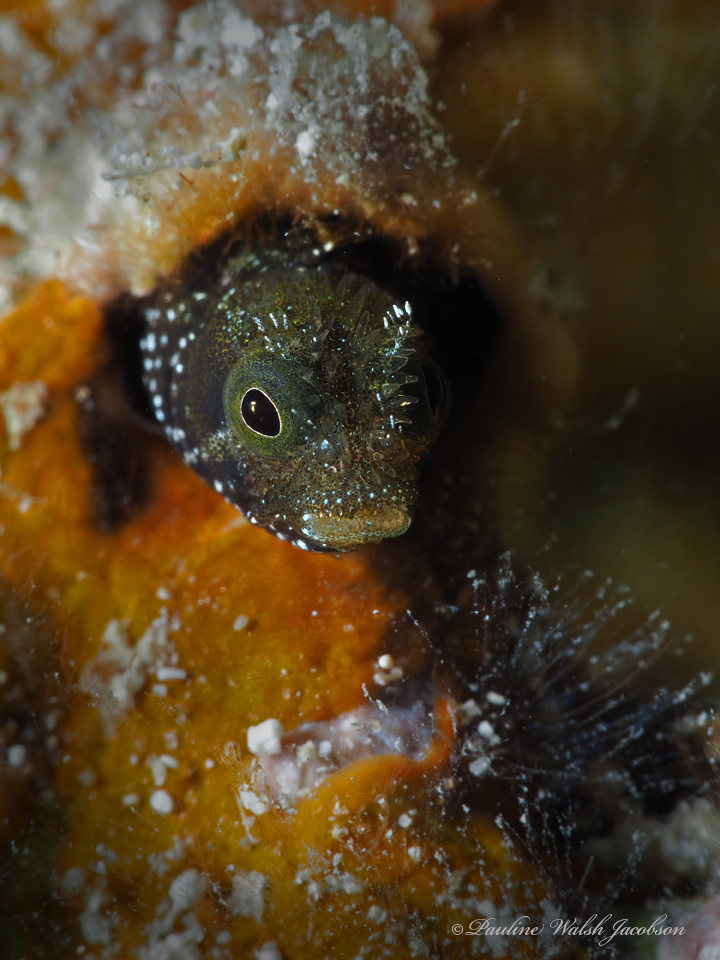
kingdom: Animalia
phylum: Chordata
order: Perciformes
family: Chaenopsidae
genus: Acanthemblemaria
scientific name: Acanthemblemaria spinosa
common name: Spinyhead blenny
